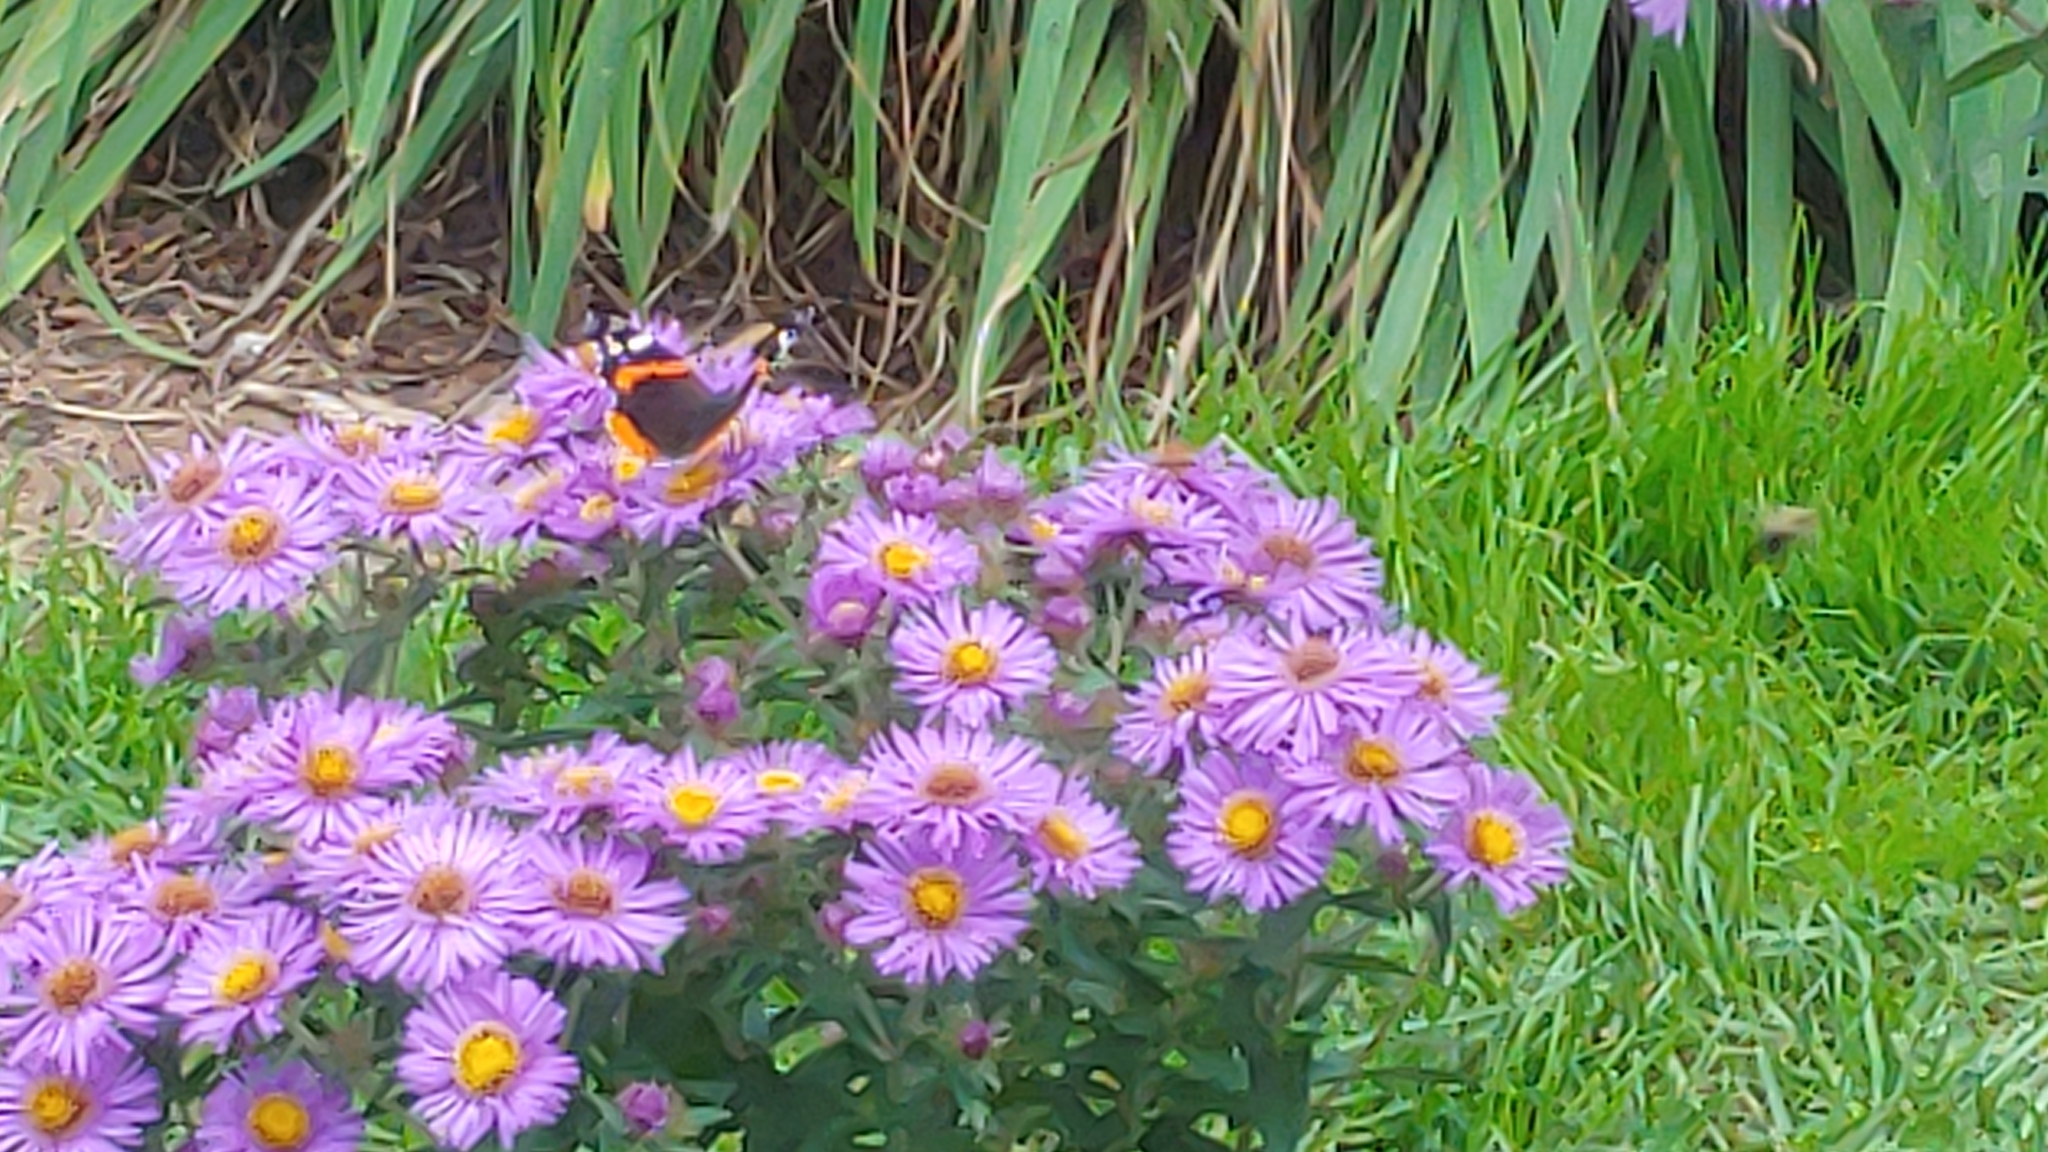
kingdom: Animalia
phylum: Arthropoda
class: Insecta
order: Lepidoptera
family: Nymphalidae
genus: Vanessa
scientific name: Vanessa atalanta
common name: Red admiral
